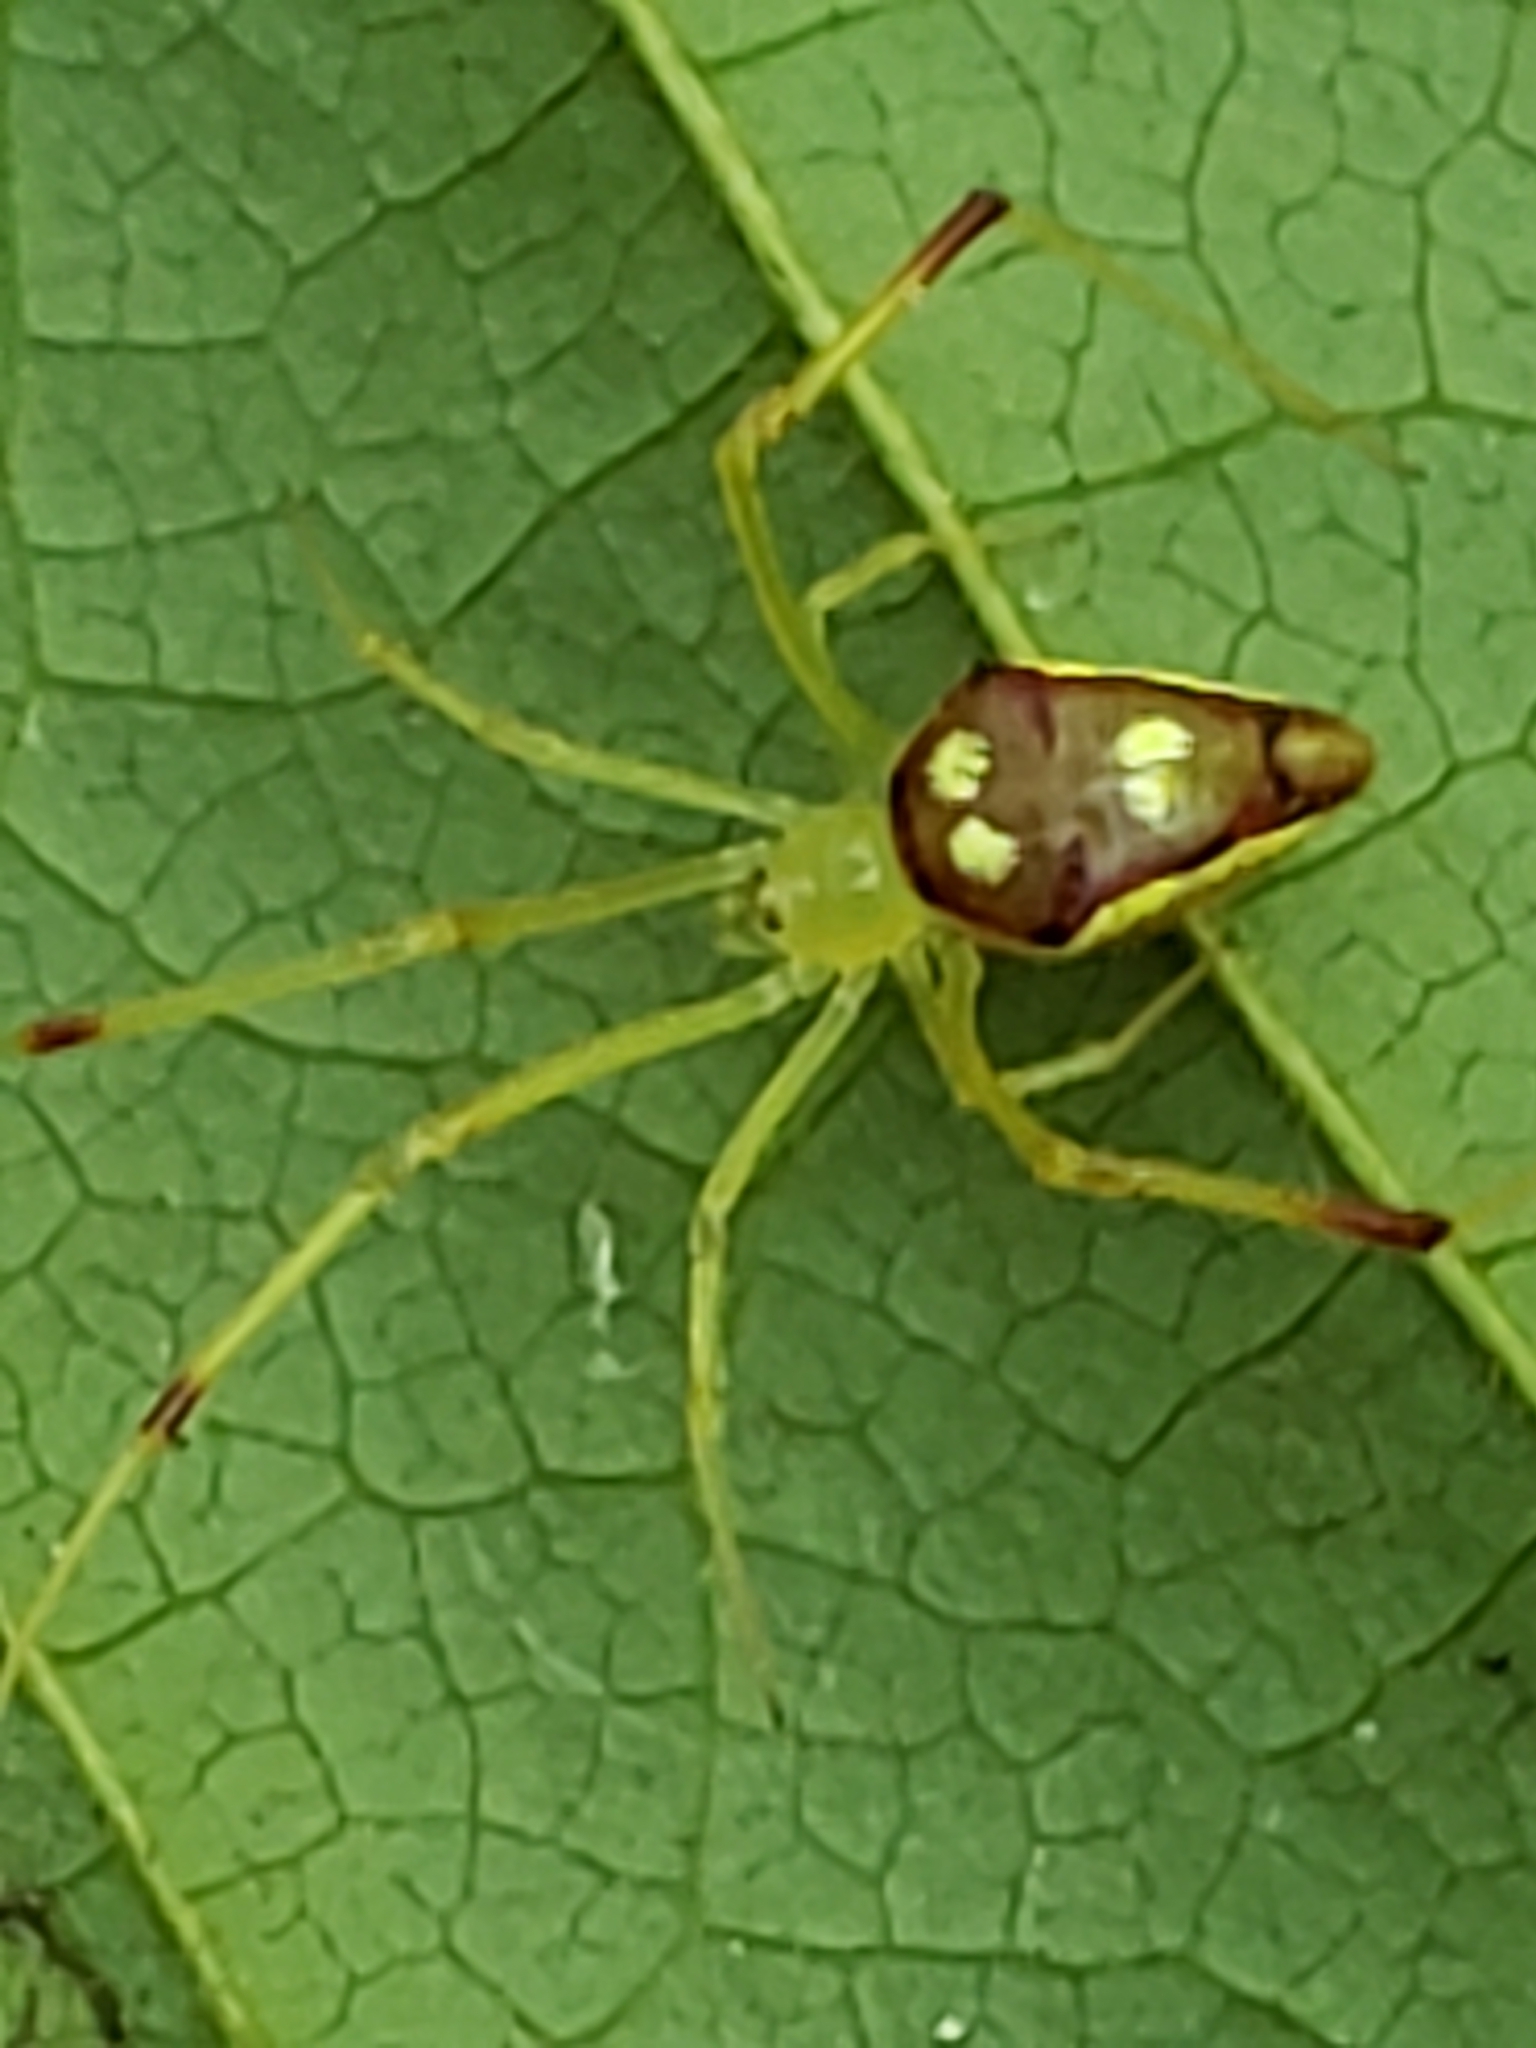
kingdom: Animalia
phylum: Arthropoda
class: Arachnida
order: Araneae
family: Theridiidae
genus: Spintharus
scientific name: Spintharus flavidus
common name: Cobweb spiders
